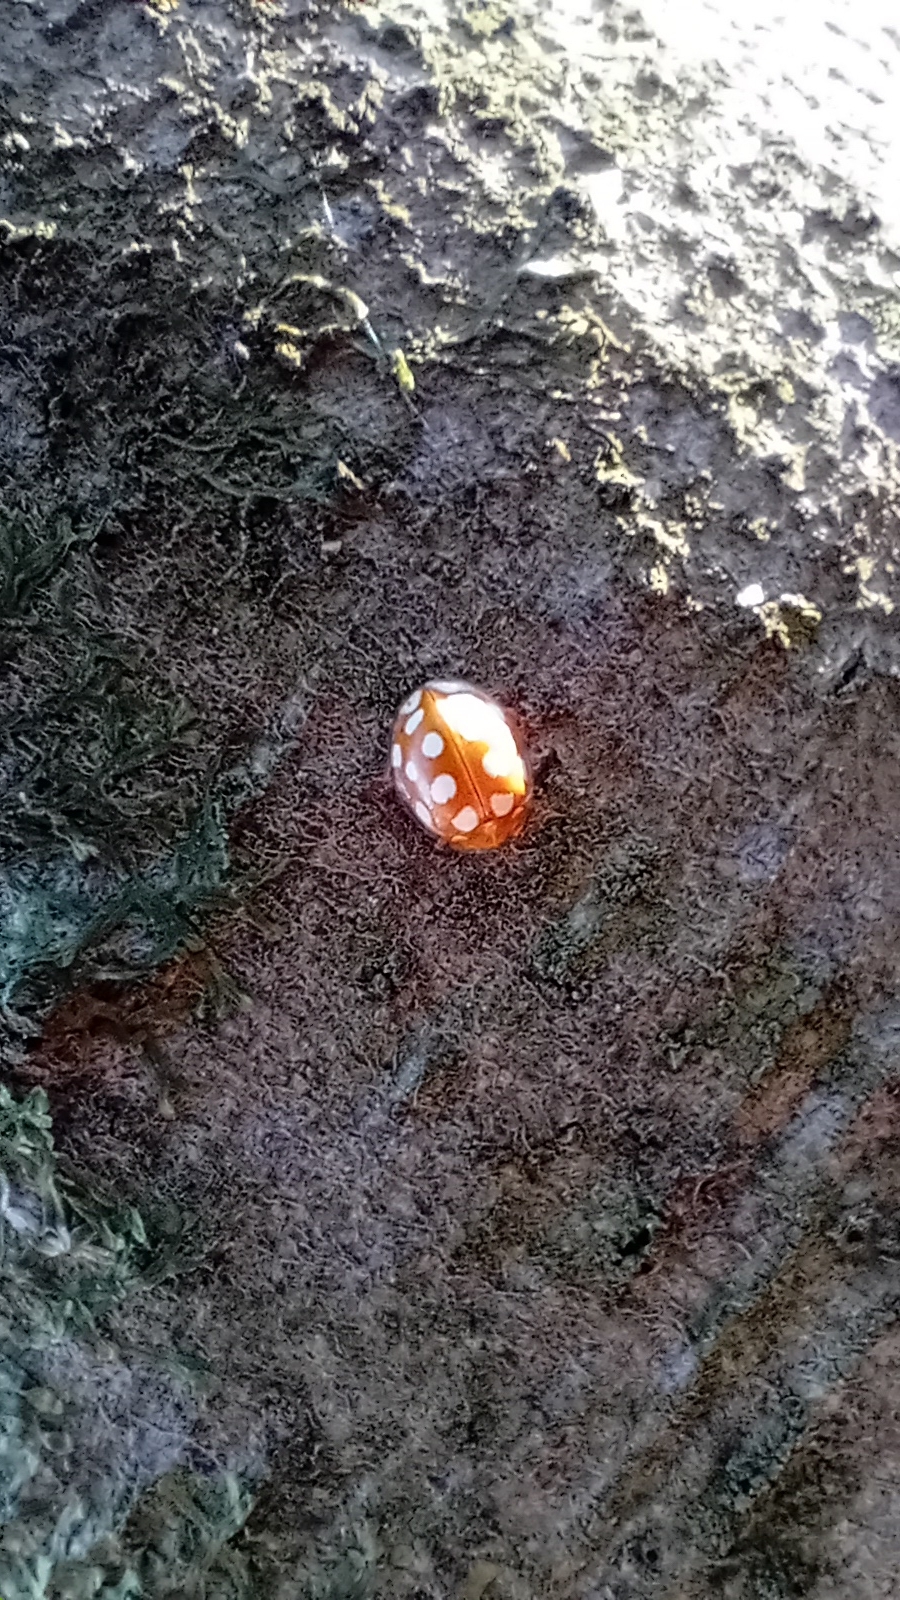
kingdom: Animalia
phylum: Arthropoda
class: Insecta
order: Coleoptera
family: Coccinellidae
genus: Halyzia
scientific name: Halyzia sedecimguttata
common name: Orange ladybird
